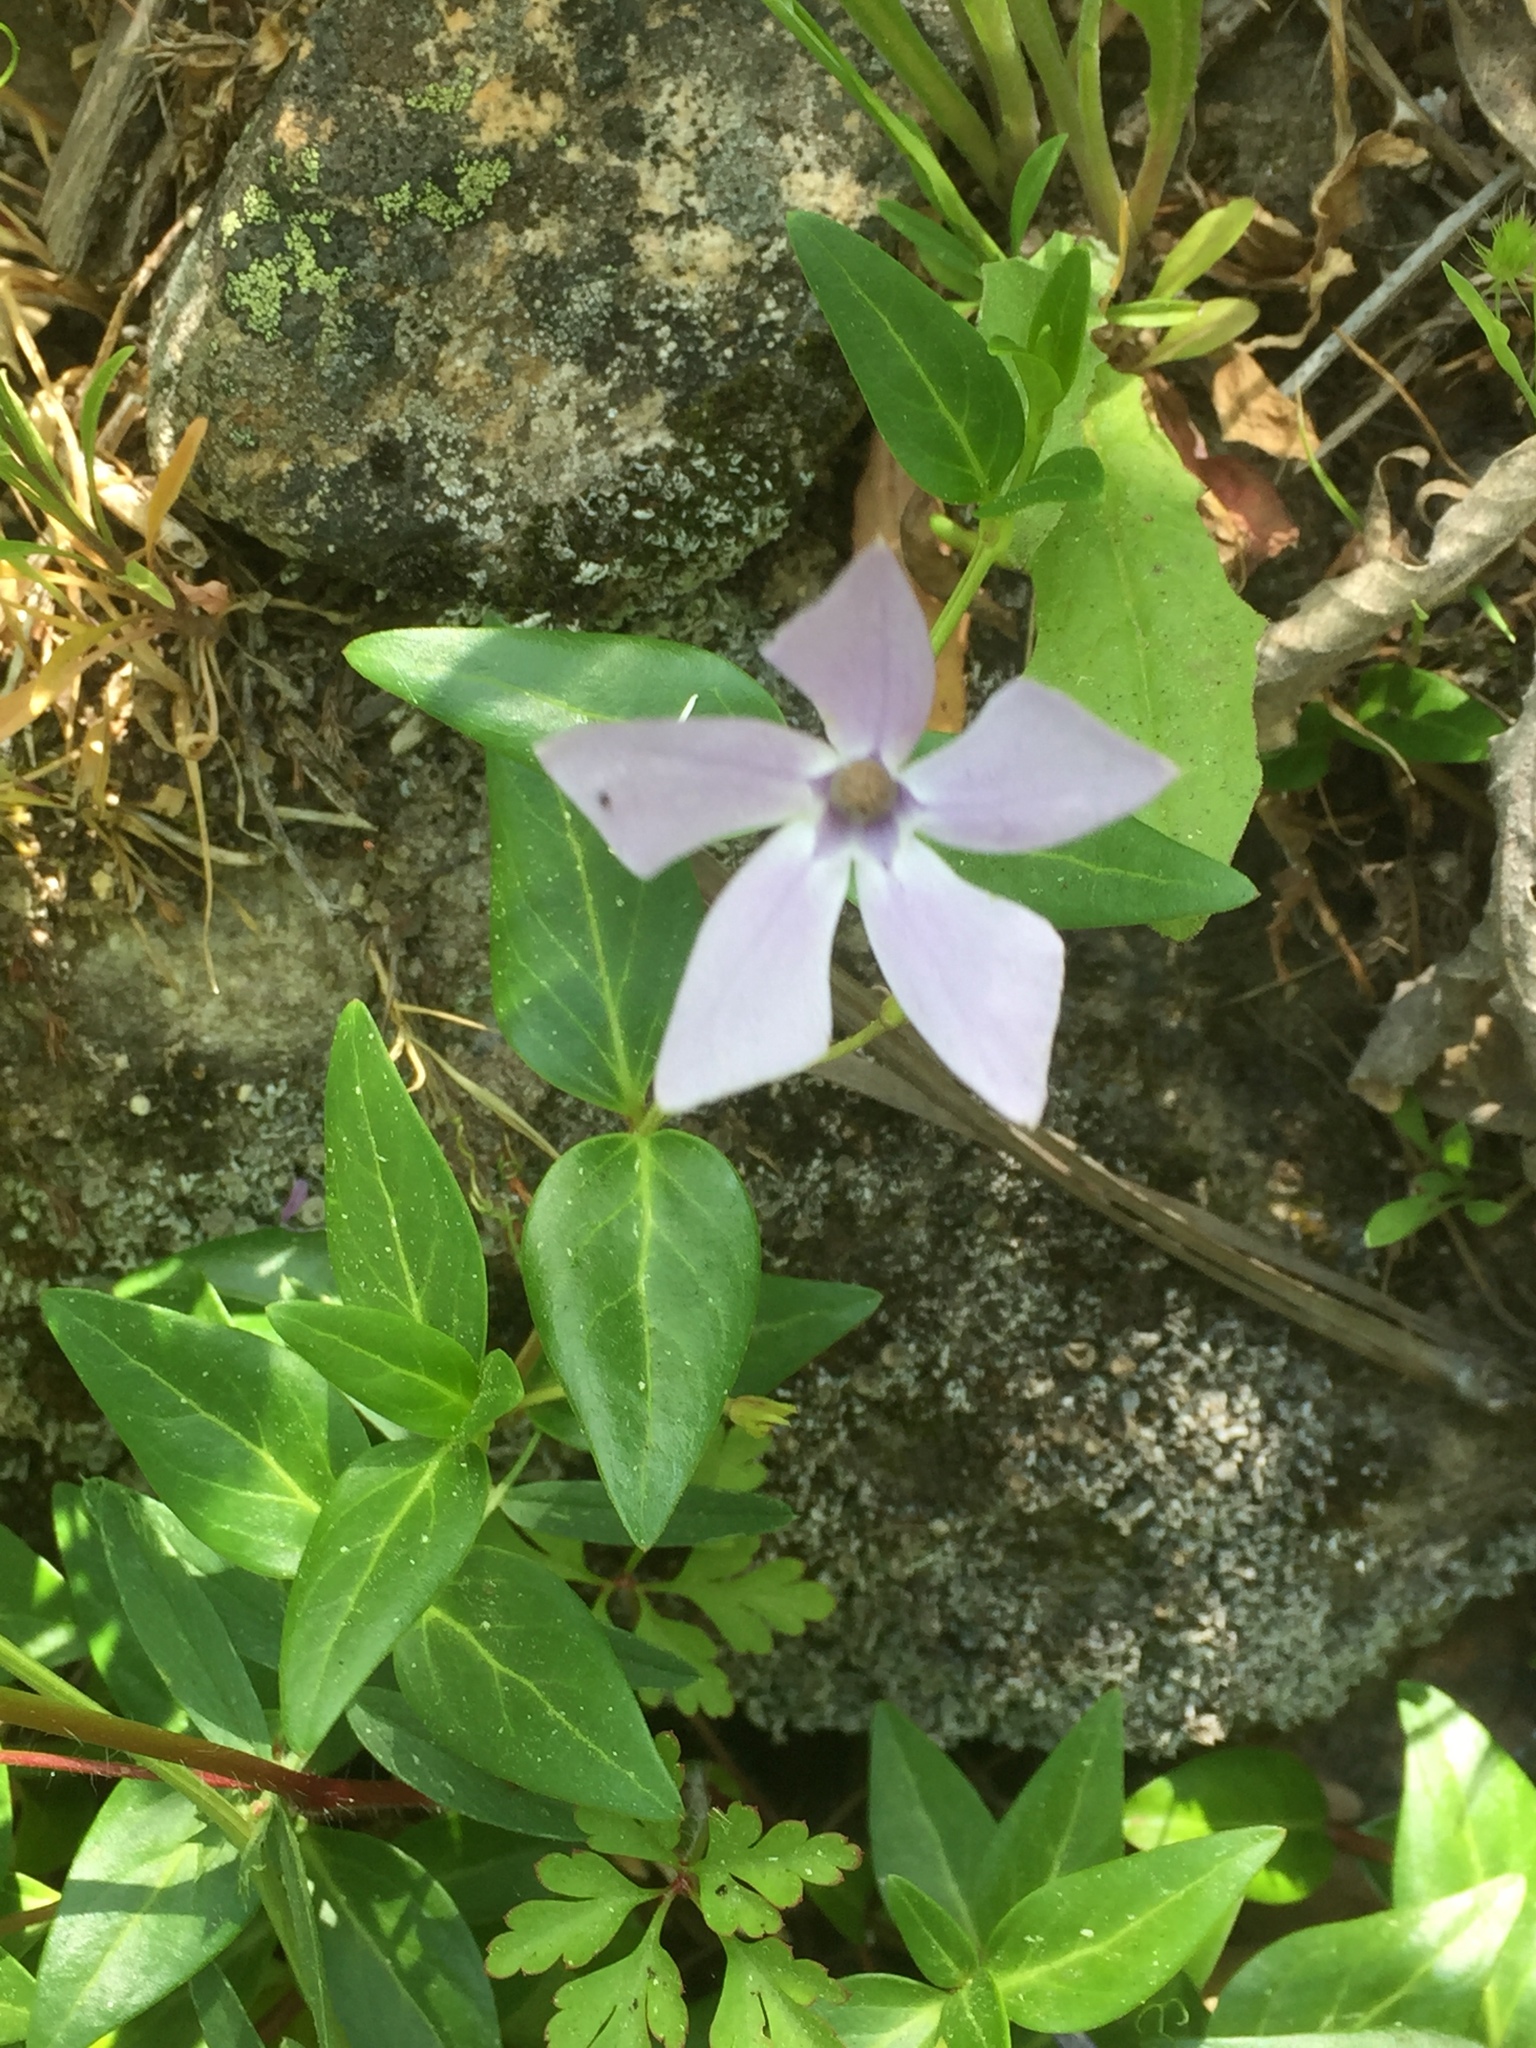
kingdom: Plantae
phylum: Tracheophyta
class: Magnoliopsida
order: Gentianales
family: Apocynaceae
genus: Vinca
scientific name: Vinca difformis
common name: Intermediate periwinkle
